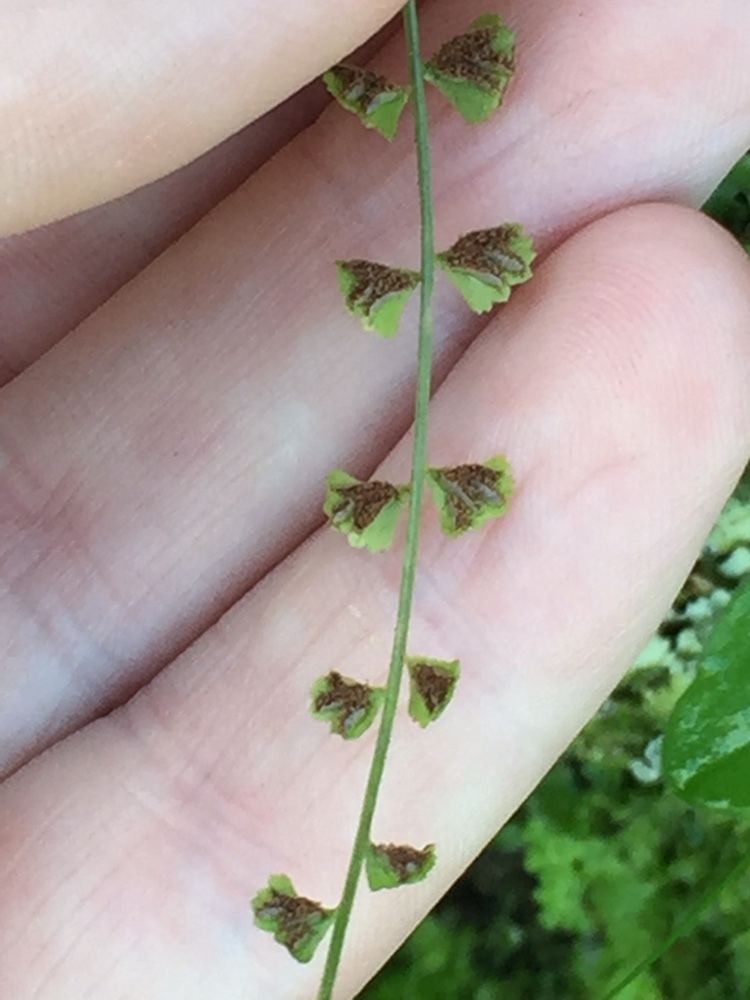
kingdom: Plantae
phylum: Tracheophyta
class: Polypodiopsida
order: Polypodiales
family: Aspleniaceae
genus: Asplenium
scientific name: Asplenium flabellifolium
